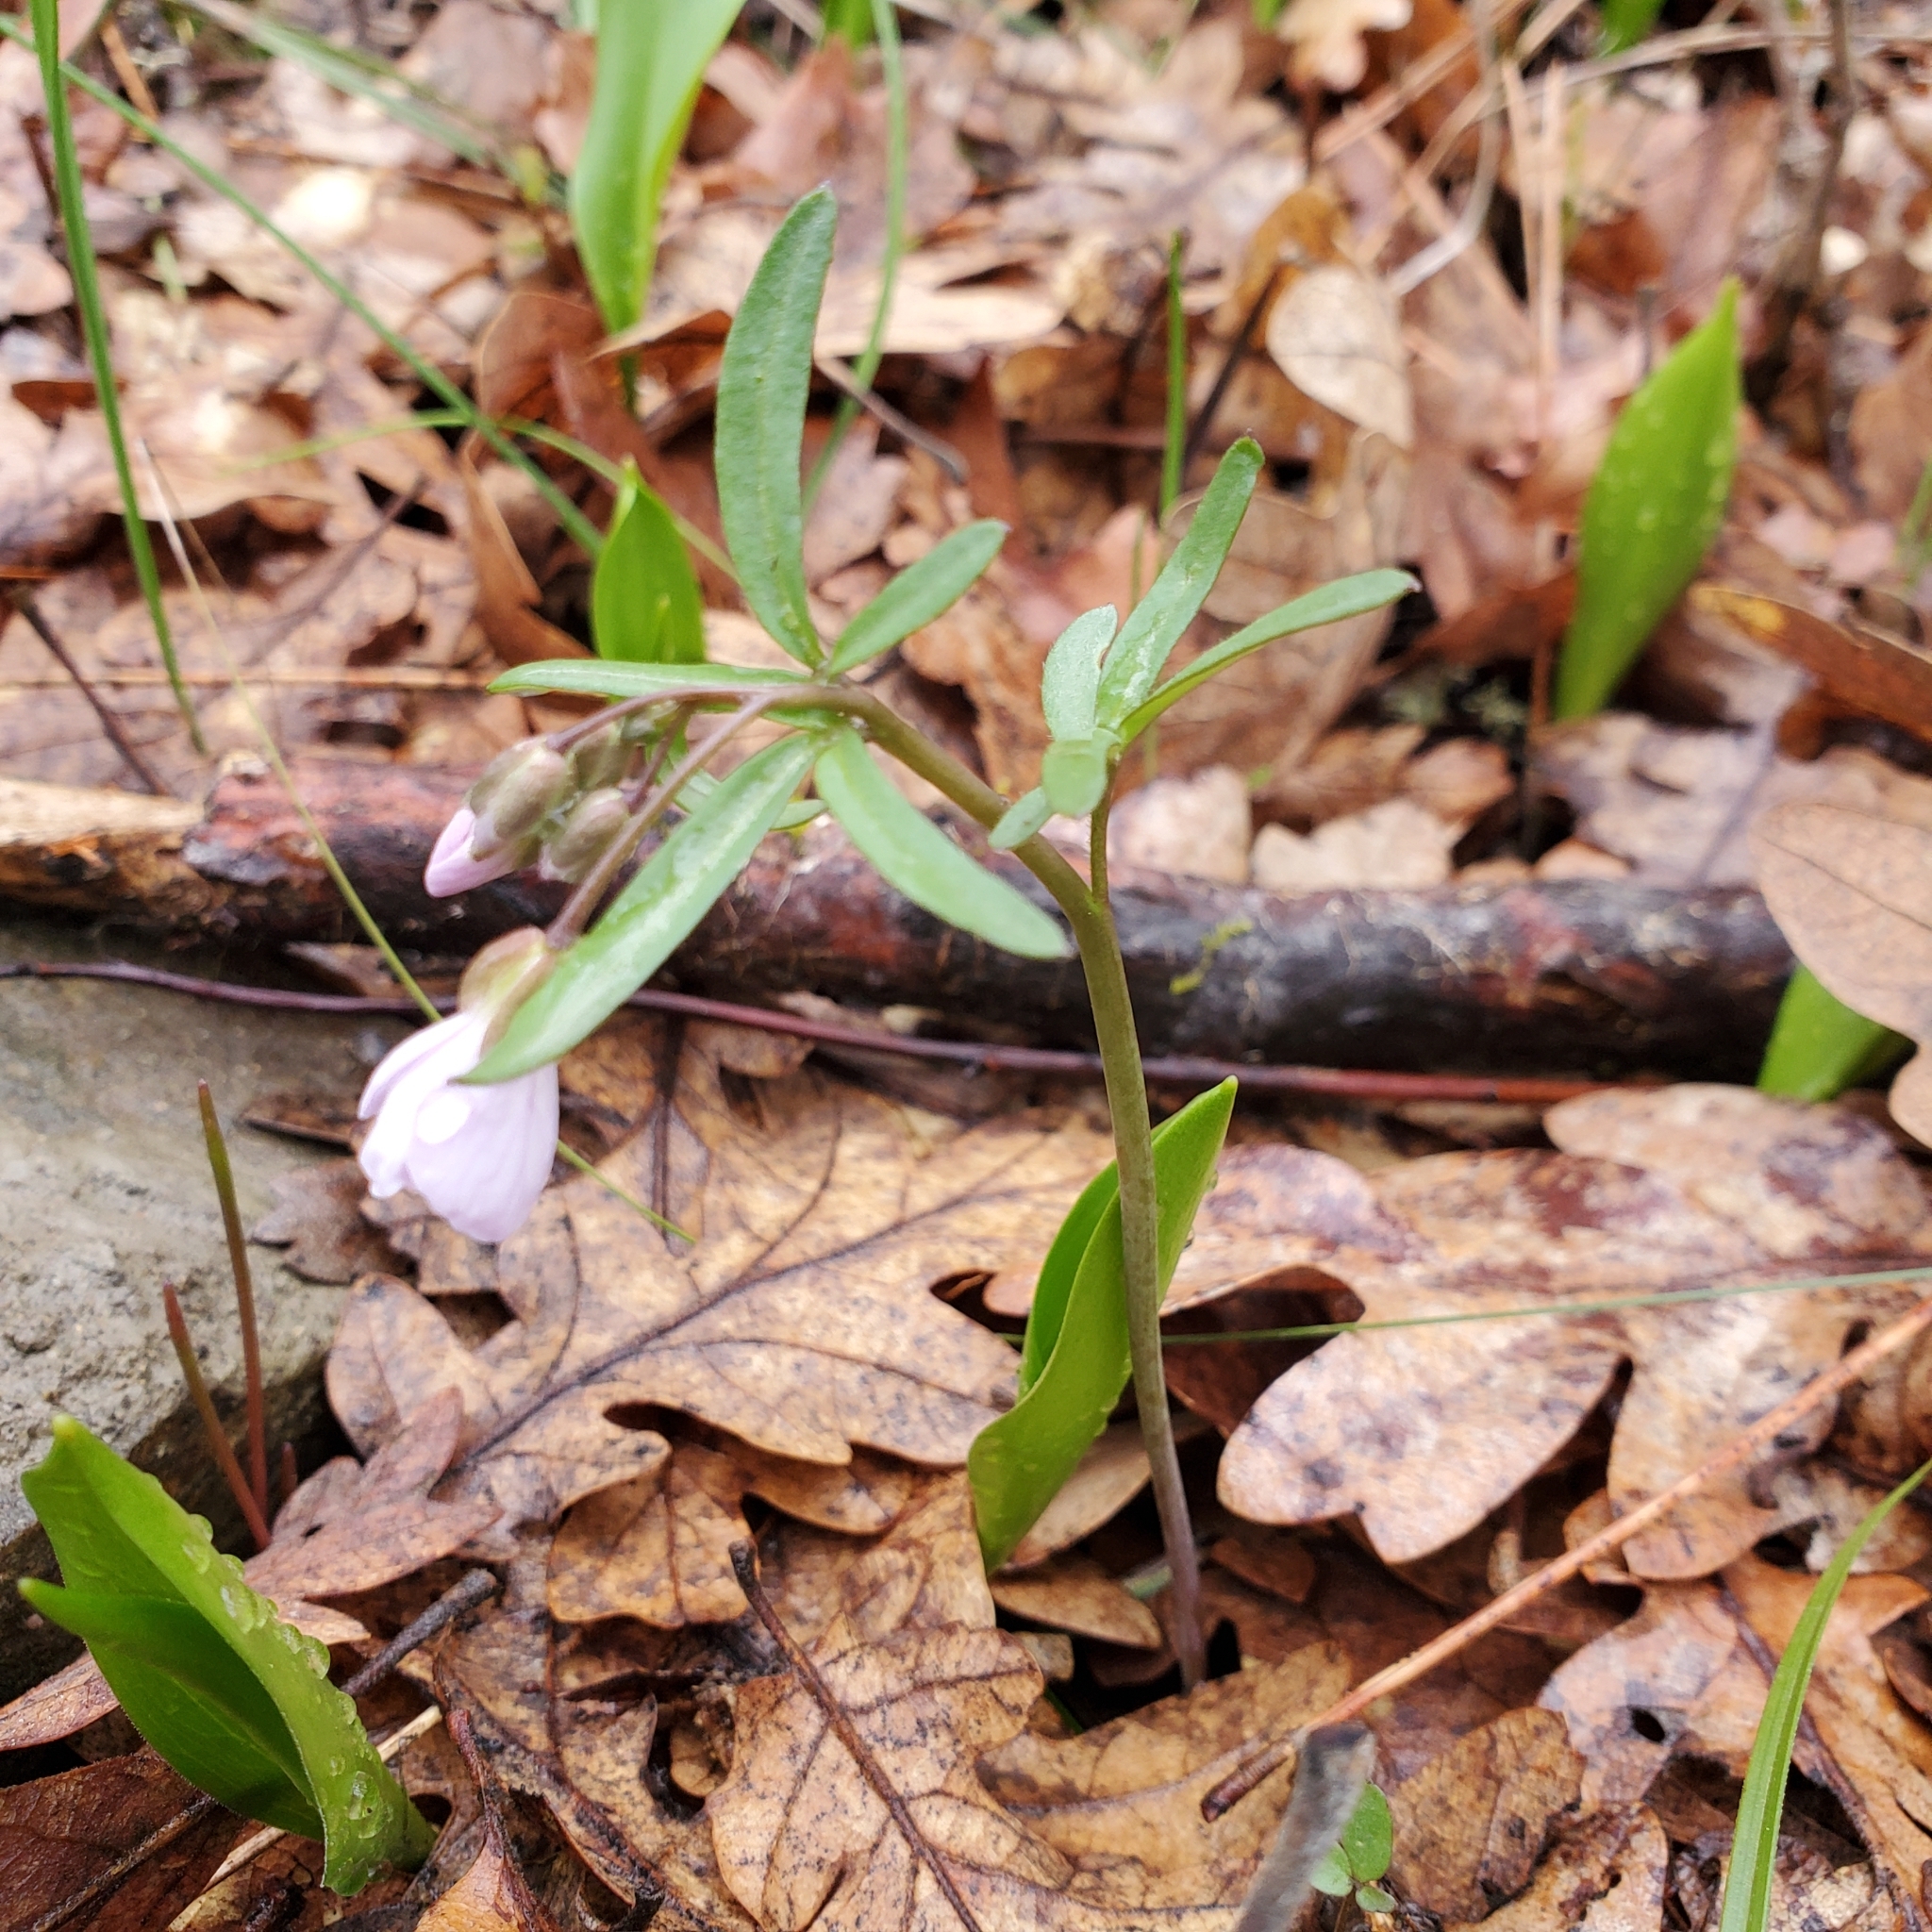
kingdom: Plantae
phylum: Tracheophyta
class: Magnoliopsida
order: Brassicales
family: Brassicaceae
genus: Cardamine
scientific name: Cardamine nuttallii
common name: Nuttall's toothwort
